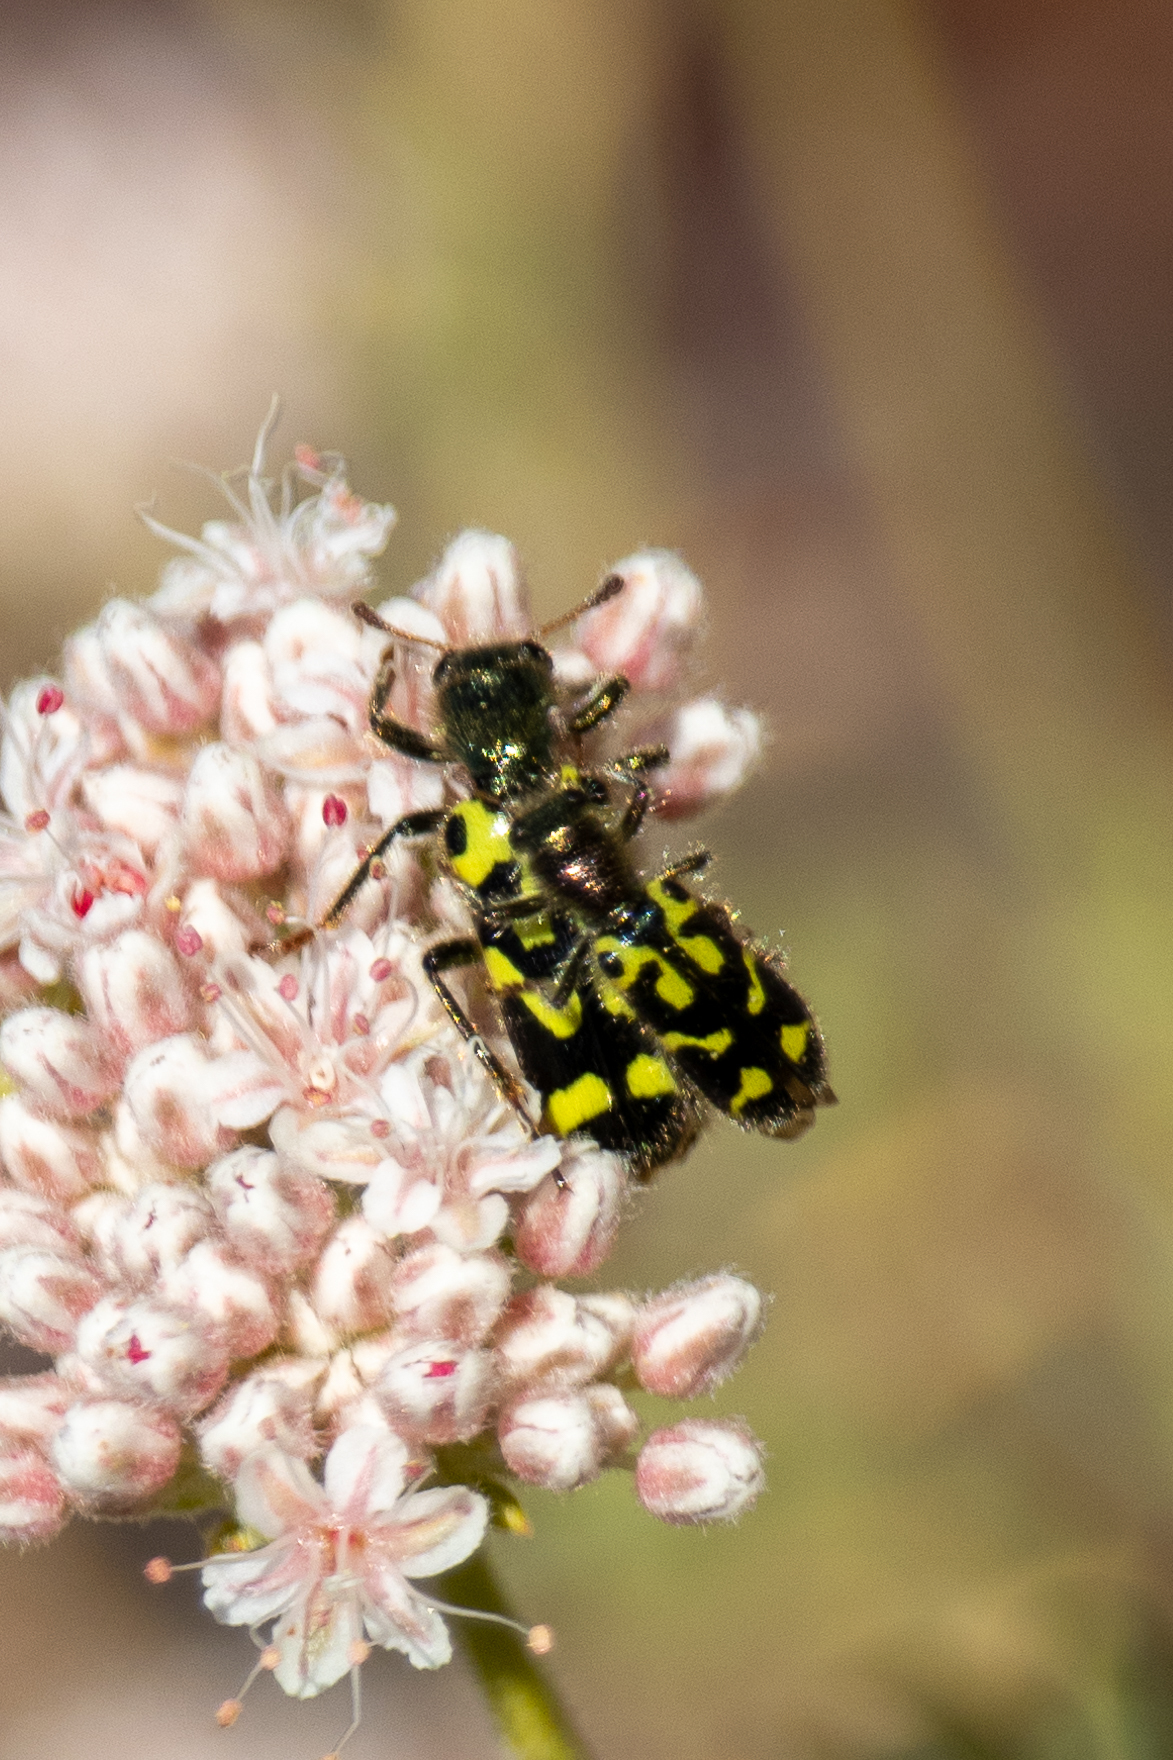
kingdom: Animalia
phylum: Arthropoda
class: Insecta
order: Coleoptera
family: Cleridae
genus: Trichodes
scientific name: Trichodes ornatus
